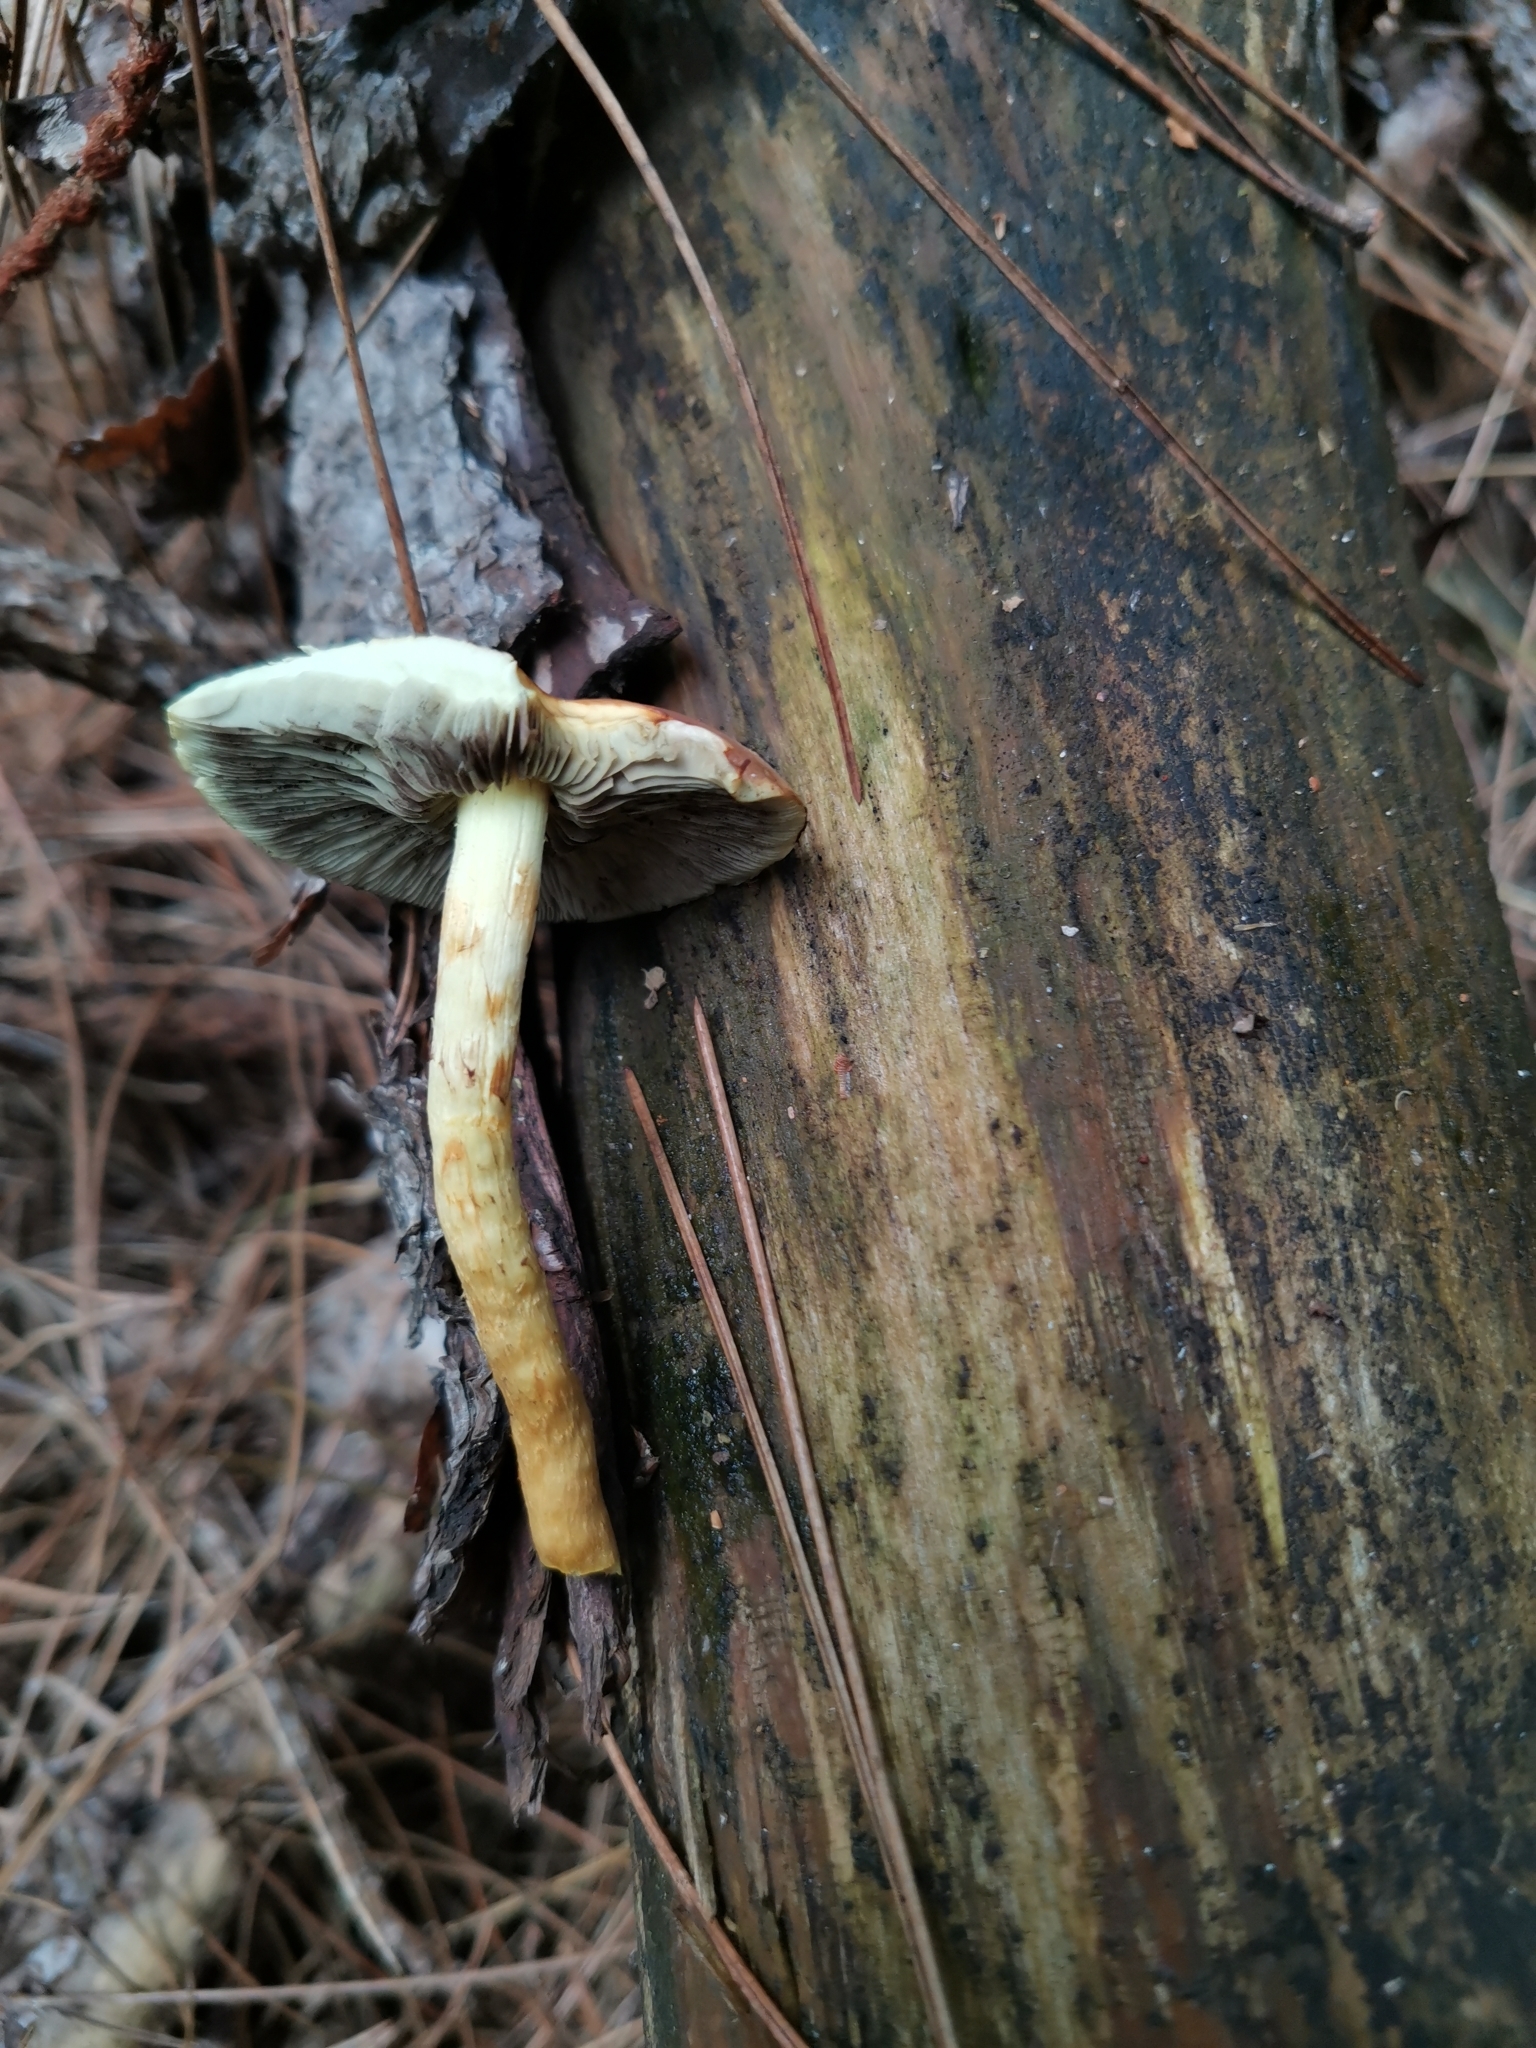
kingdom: Fungi
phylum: Basidiomycota
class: Agaricomycetes
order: Agaricales
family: Strophariaceae
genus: Hypholoma
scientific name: Hypholoma fasciculare
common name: Sulphur tuft
